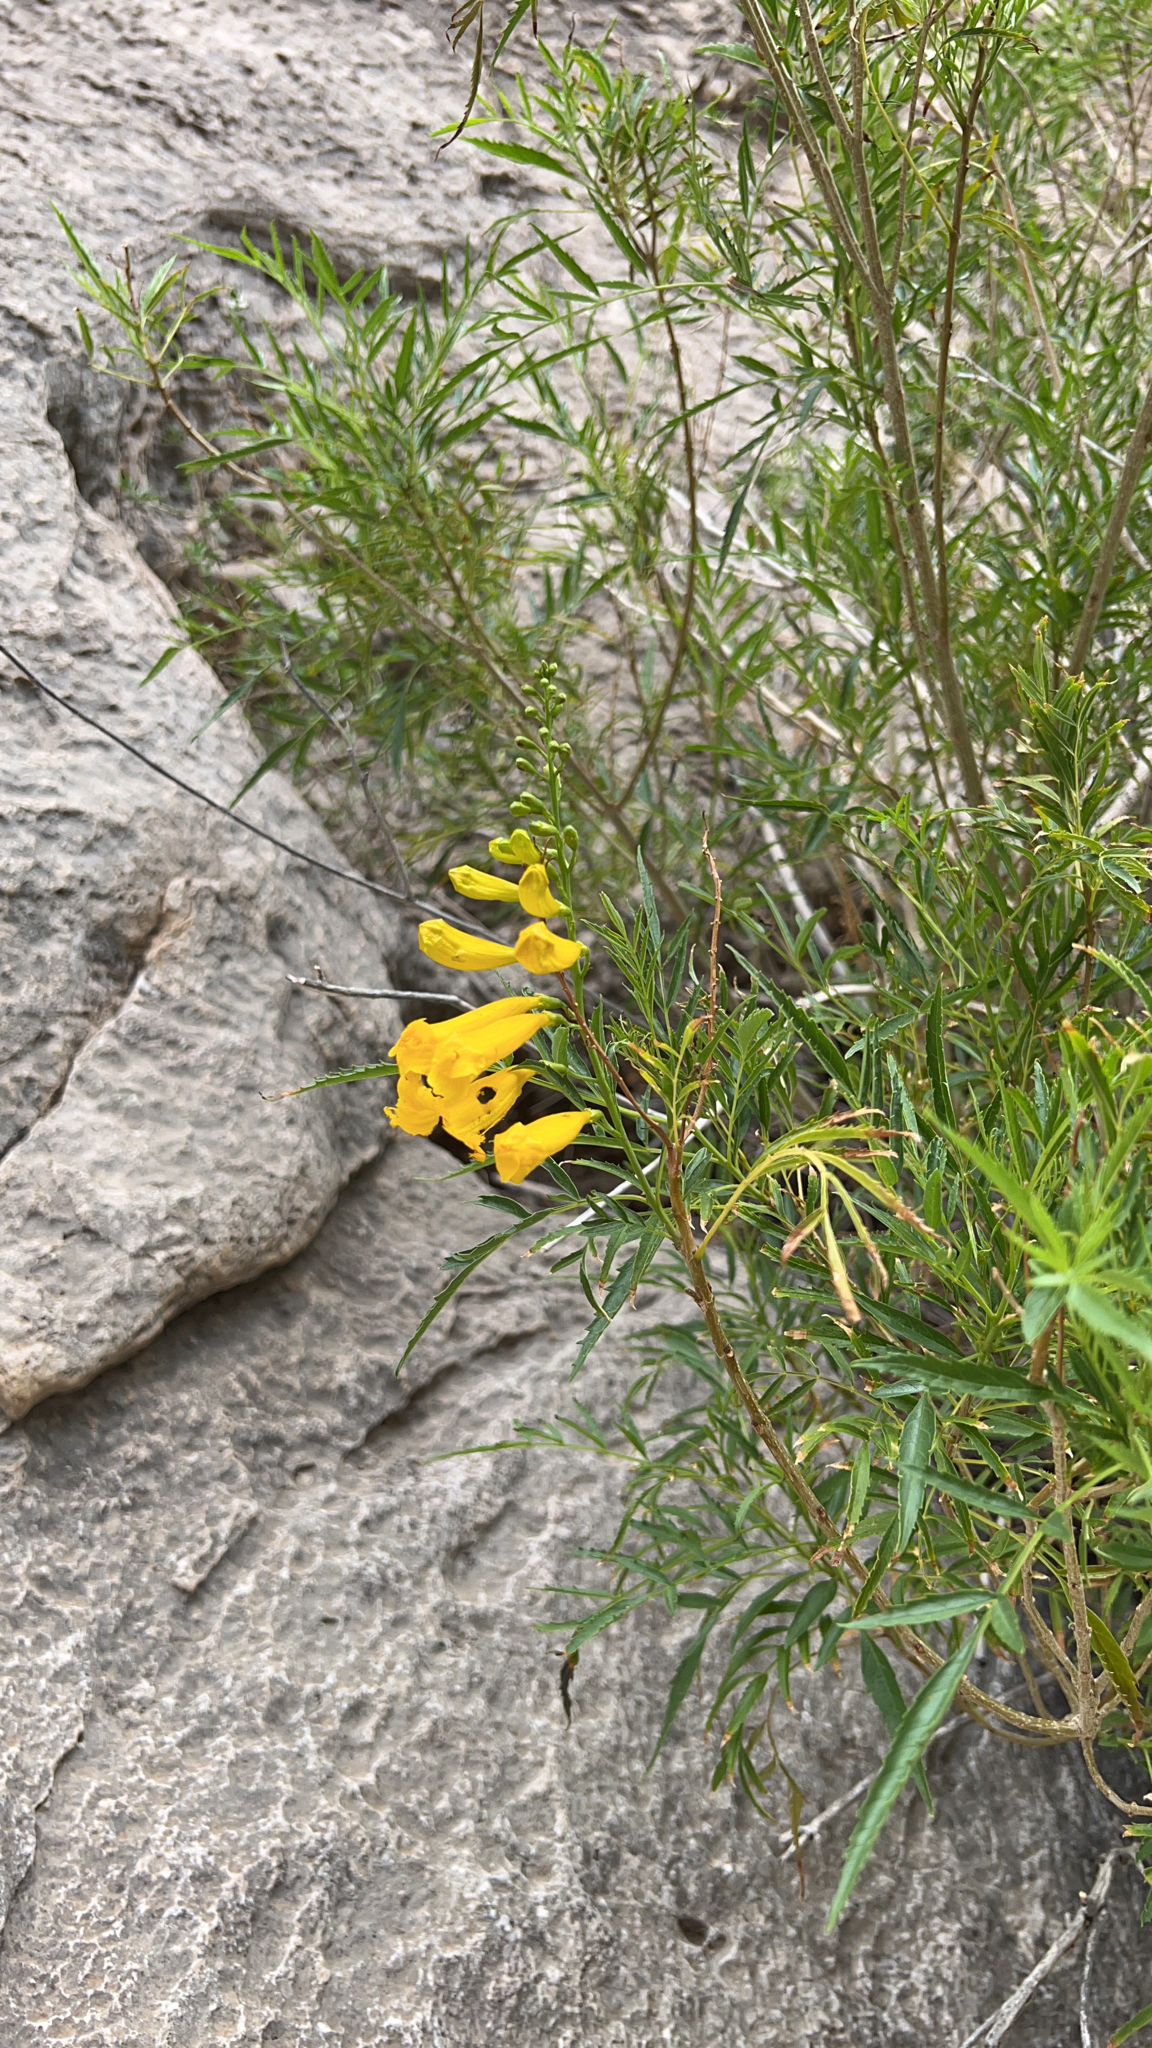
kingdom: Plantae
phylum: Tracheophyta
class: Magnoliopsida
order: Lamiales
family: Bignoniaceae
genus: Tecoma
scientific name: Tecoma stans
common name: Yellow trumpetbush
